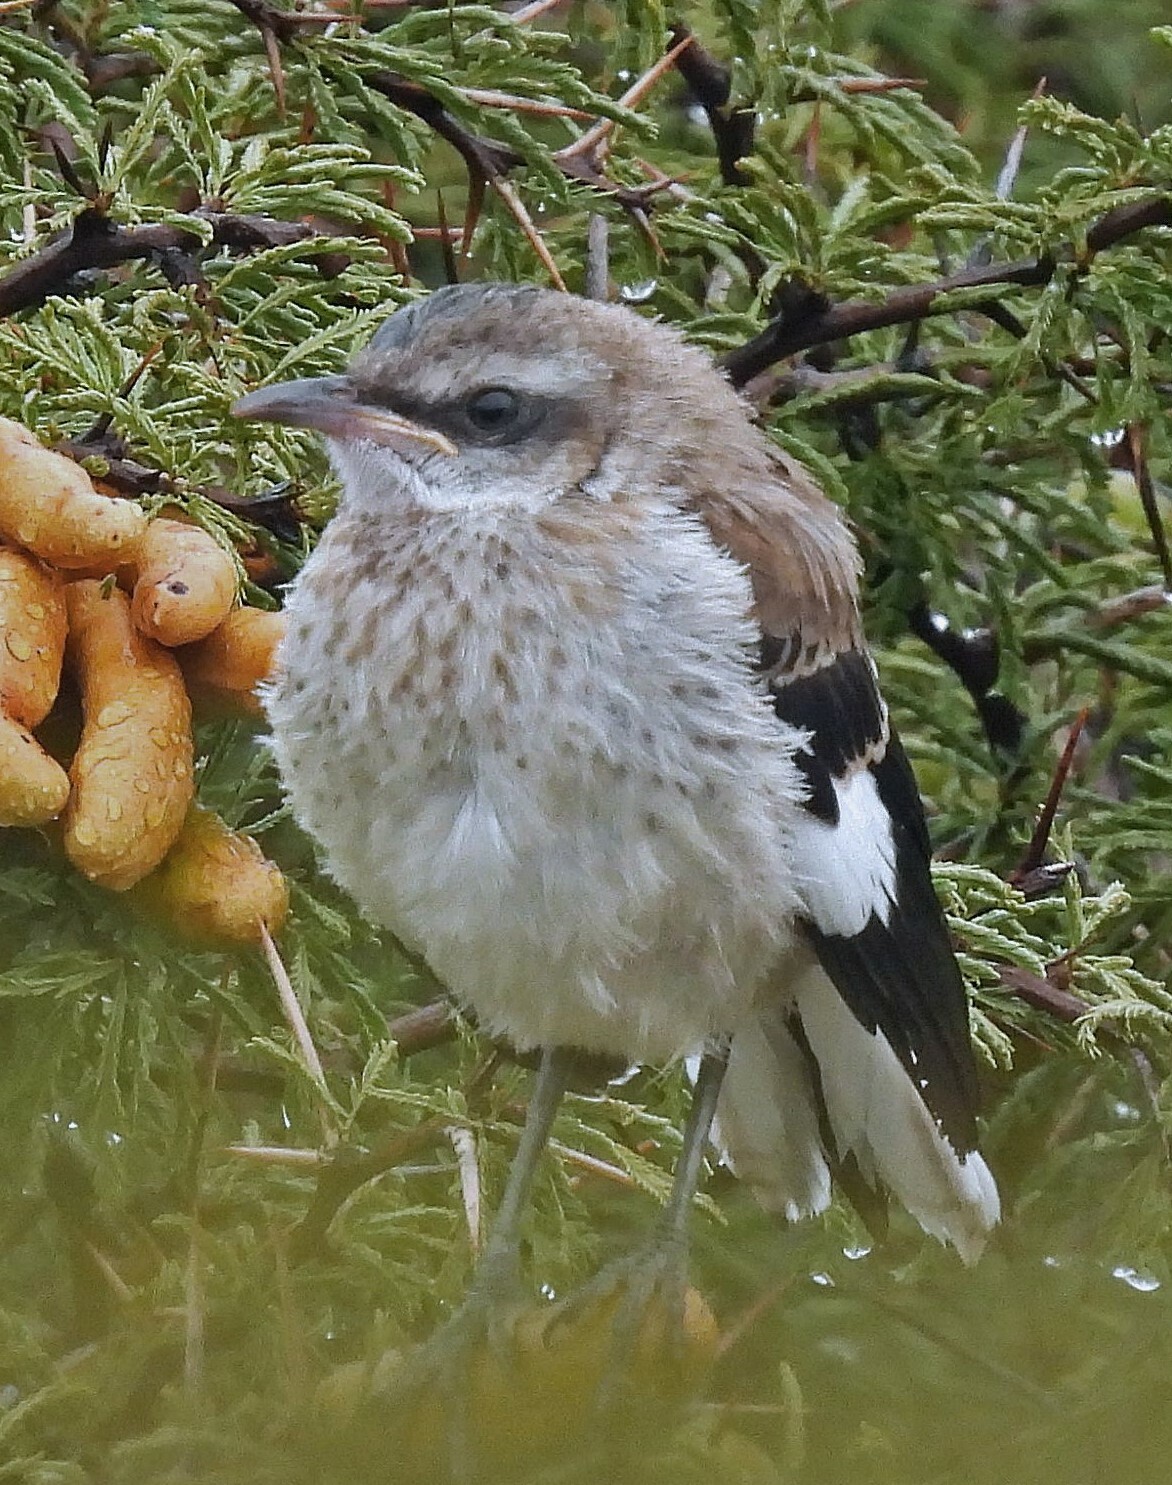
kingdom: Animalia
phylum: Chordata
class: Aves
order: Passeriformes
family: Mimidae
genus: Mimus
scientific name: Mimus dorsalis
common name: Brown-backed mockingbird
